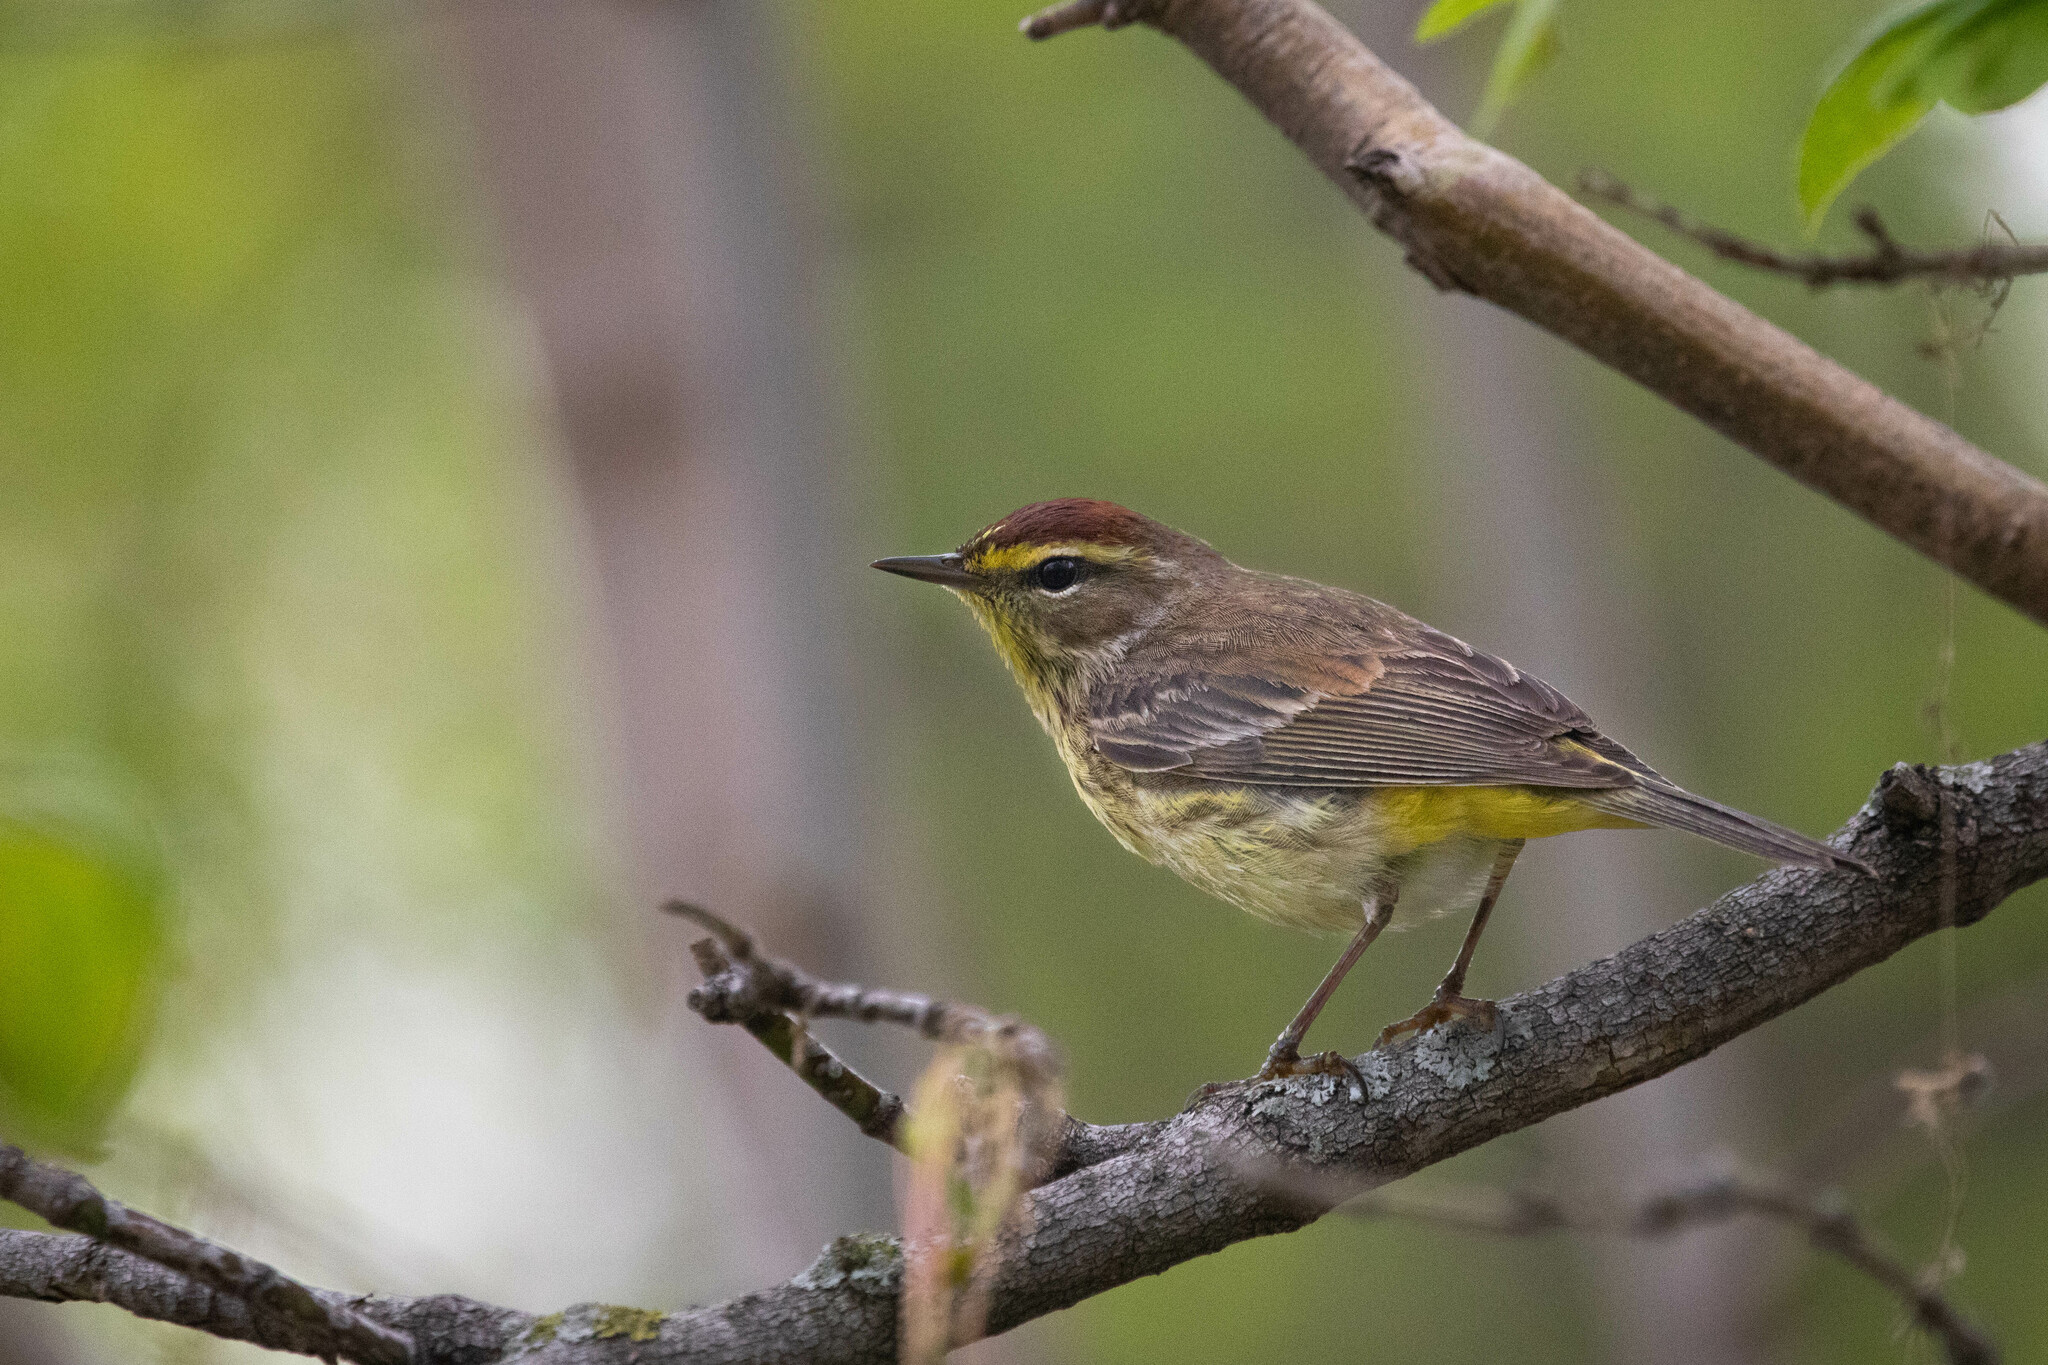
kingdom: Animalia
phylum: Chordata
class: Aves
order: Passeriformes
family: Parulidae
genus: Setophaga
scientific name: Setophaga palmarum
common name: Palm warbler
